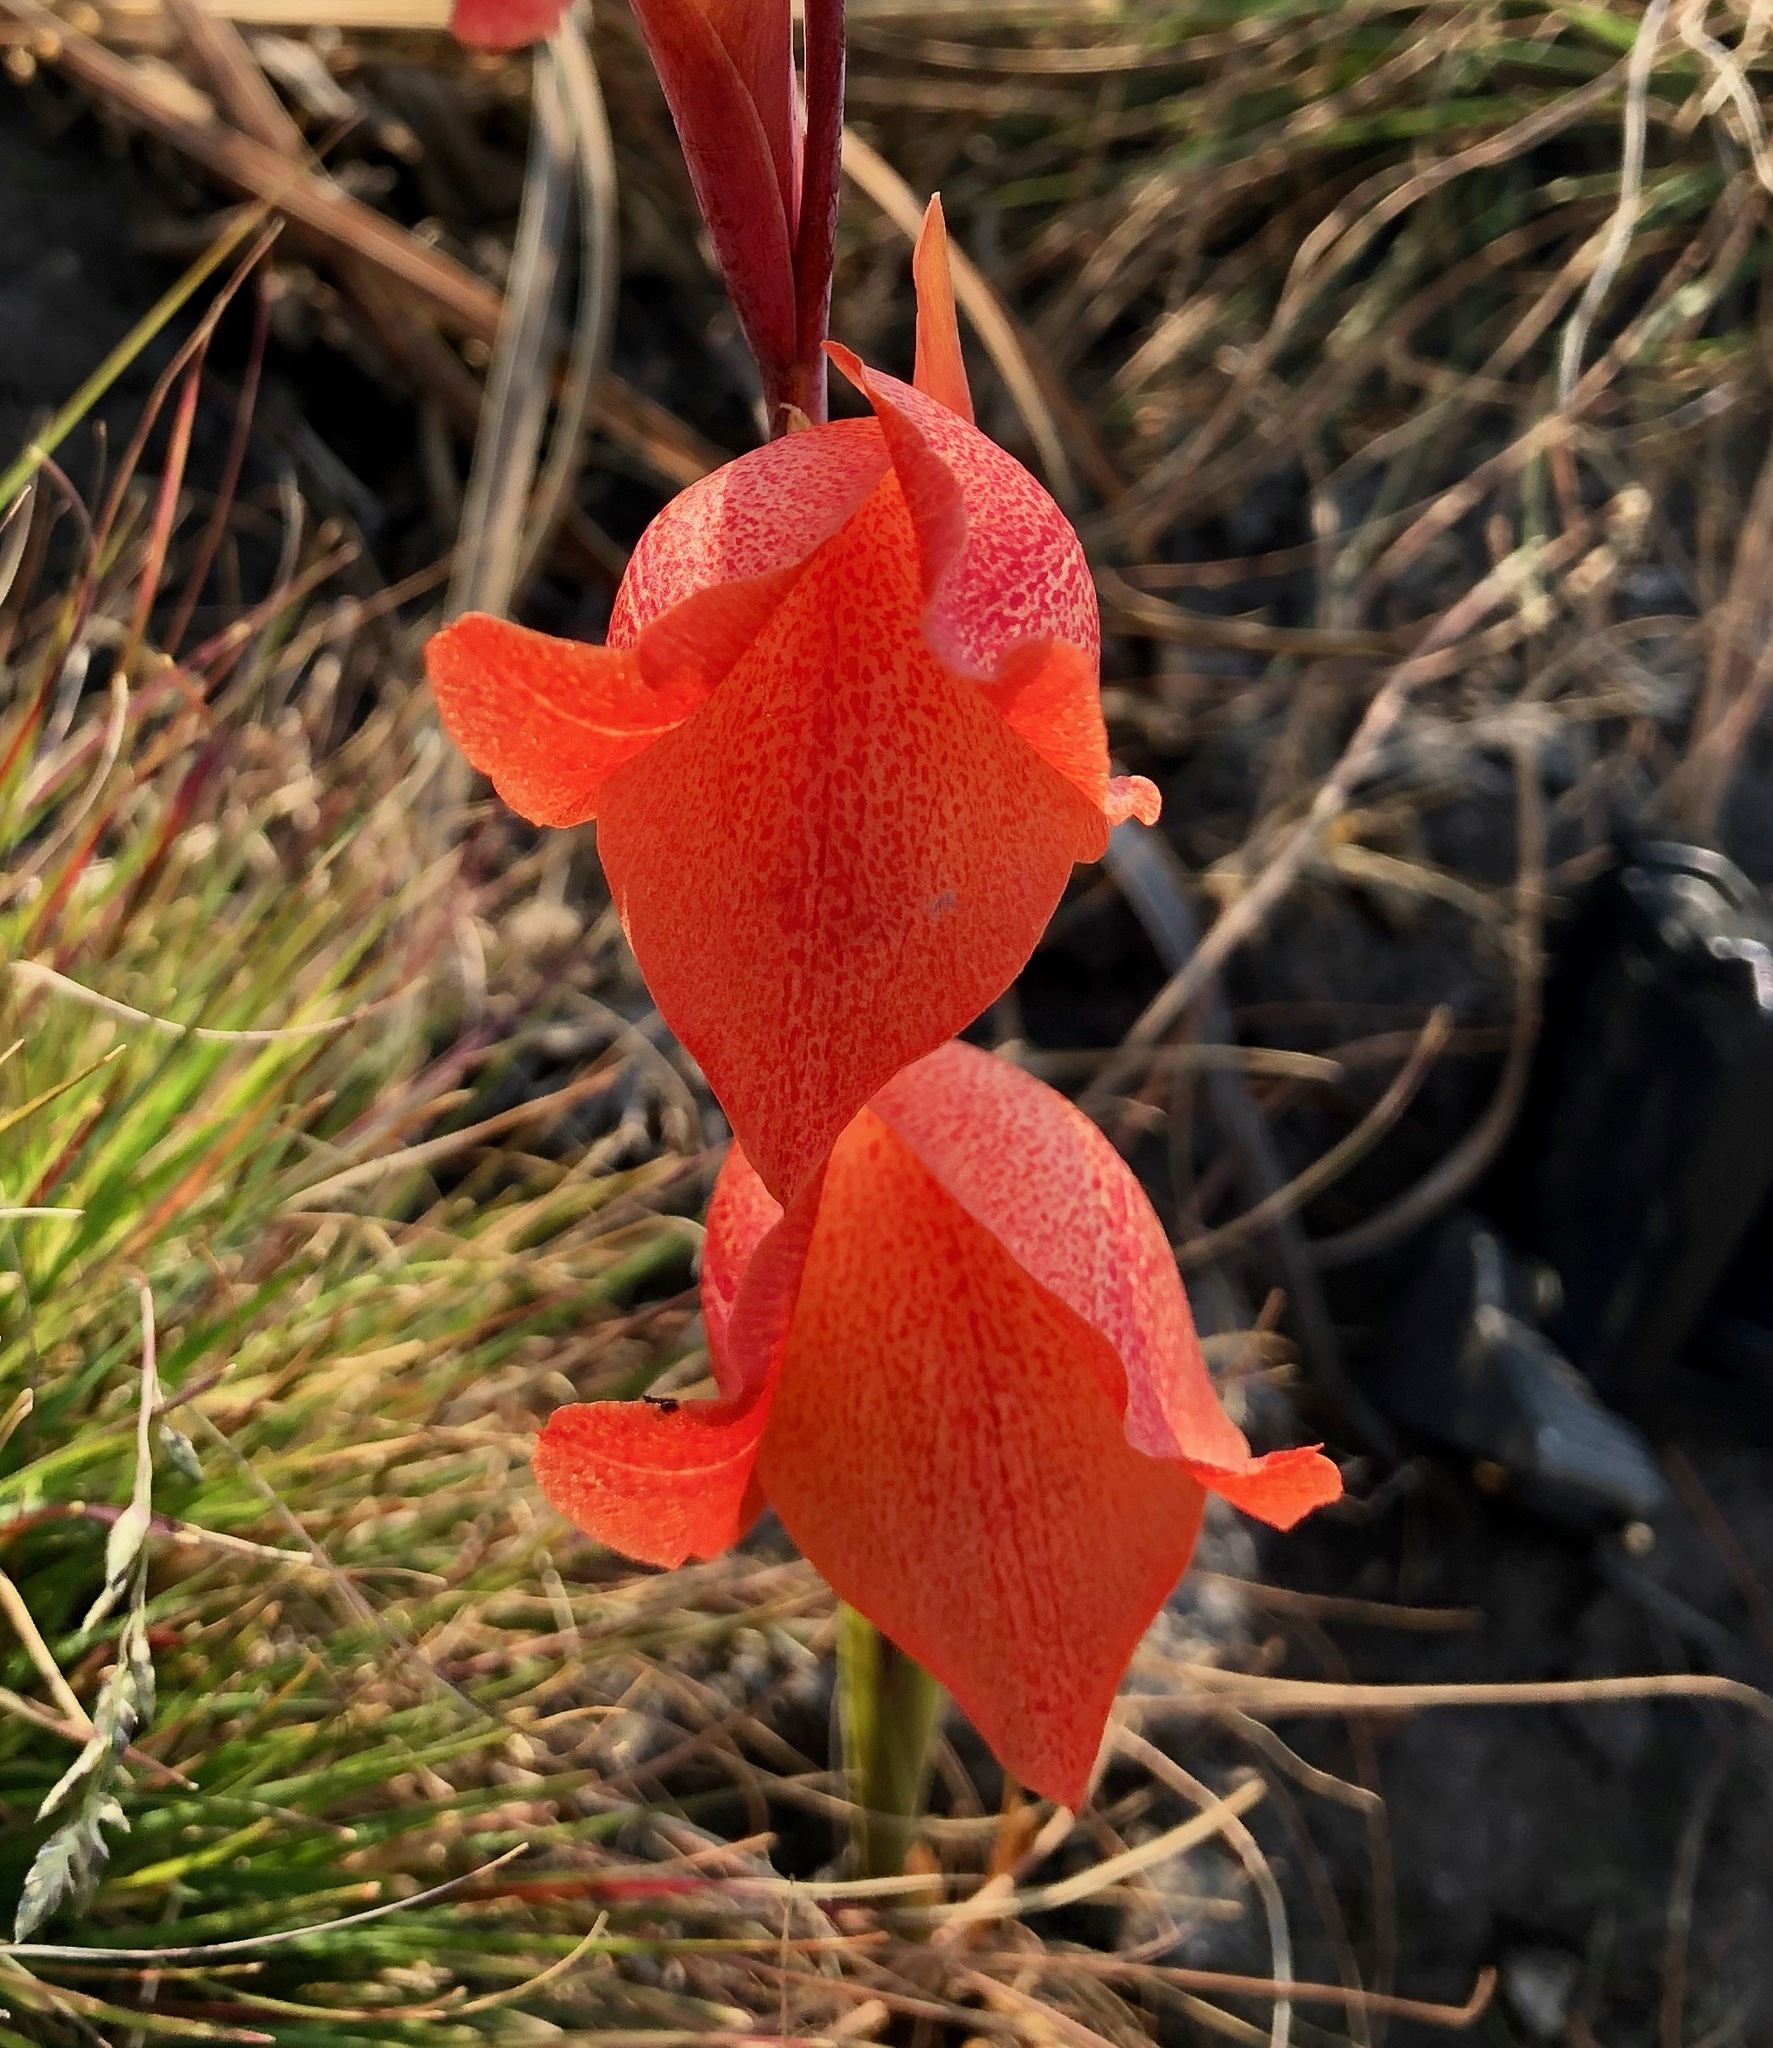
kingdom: Plantae
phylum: Tracheophyta
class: Liliopsida
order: Asparagales
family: Iridaceae
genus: Gladiolus
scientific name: Gladiolus dalenii
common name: Cornflag
